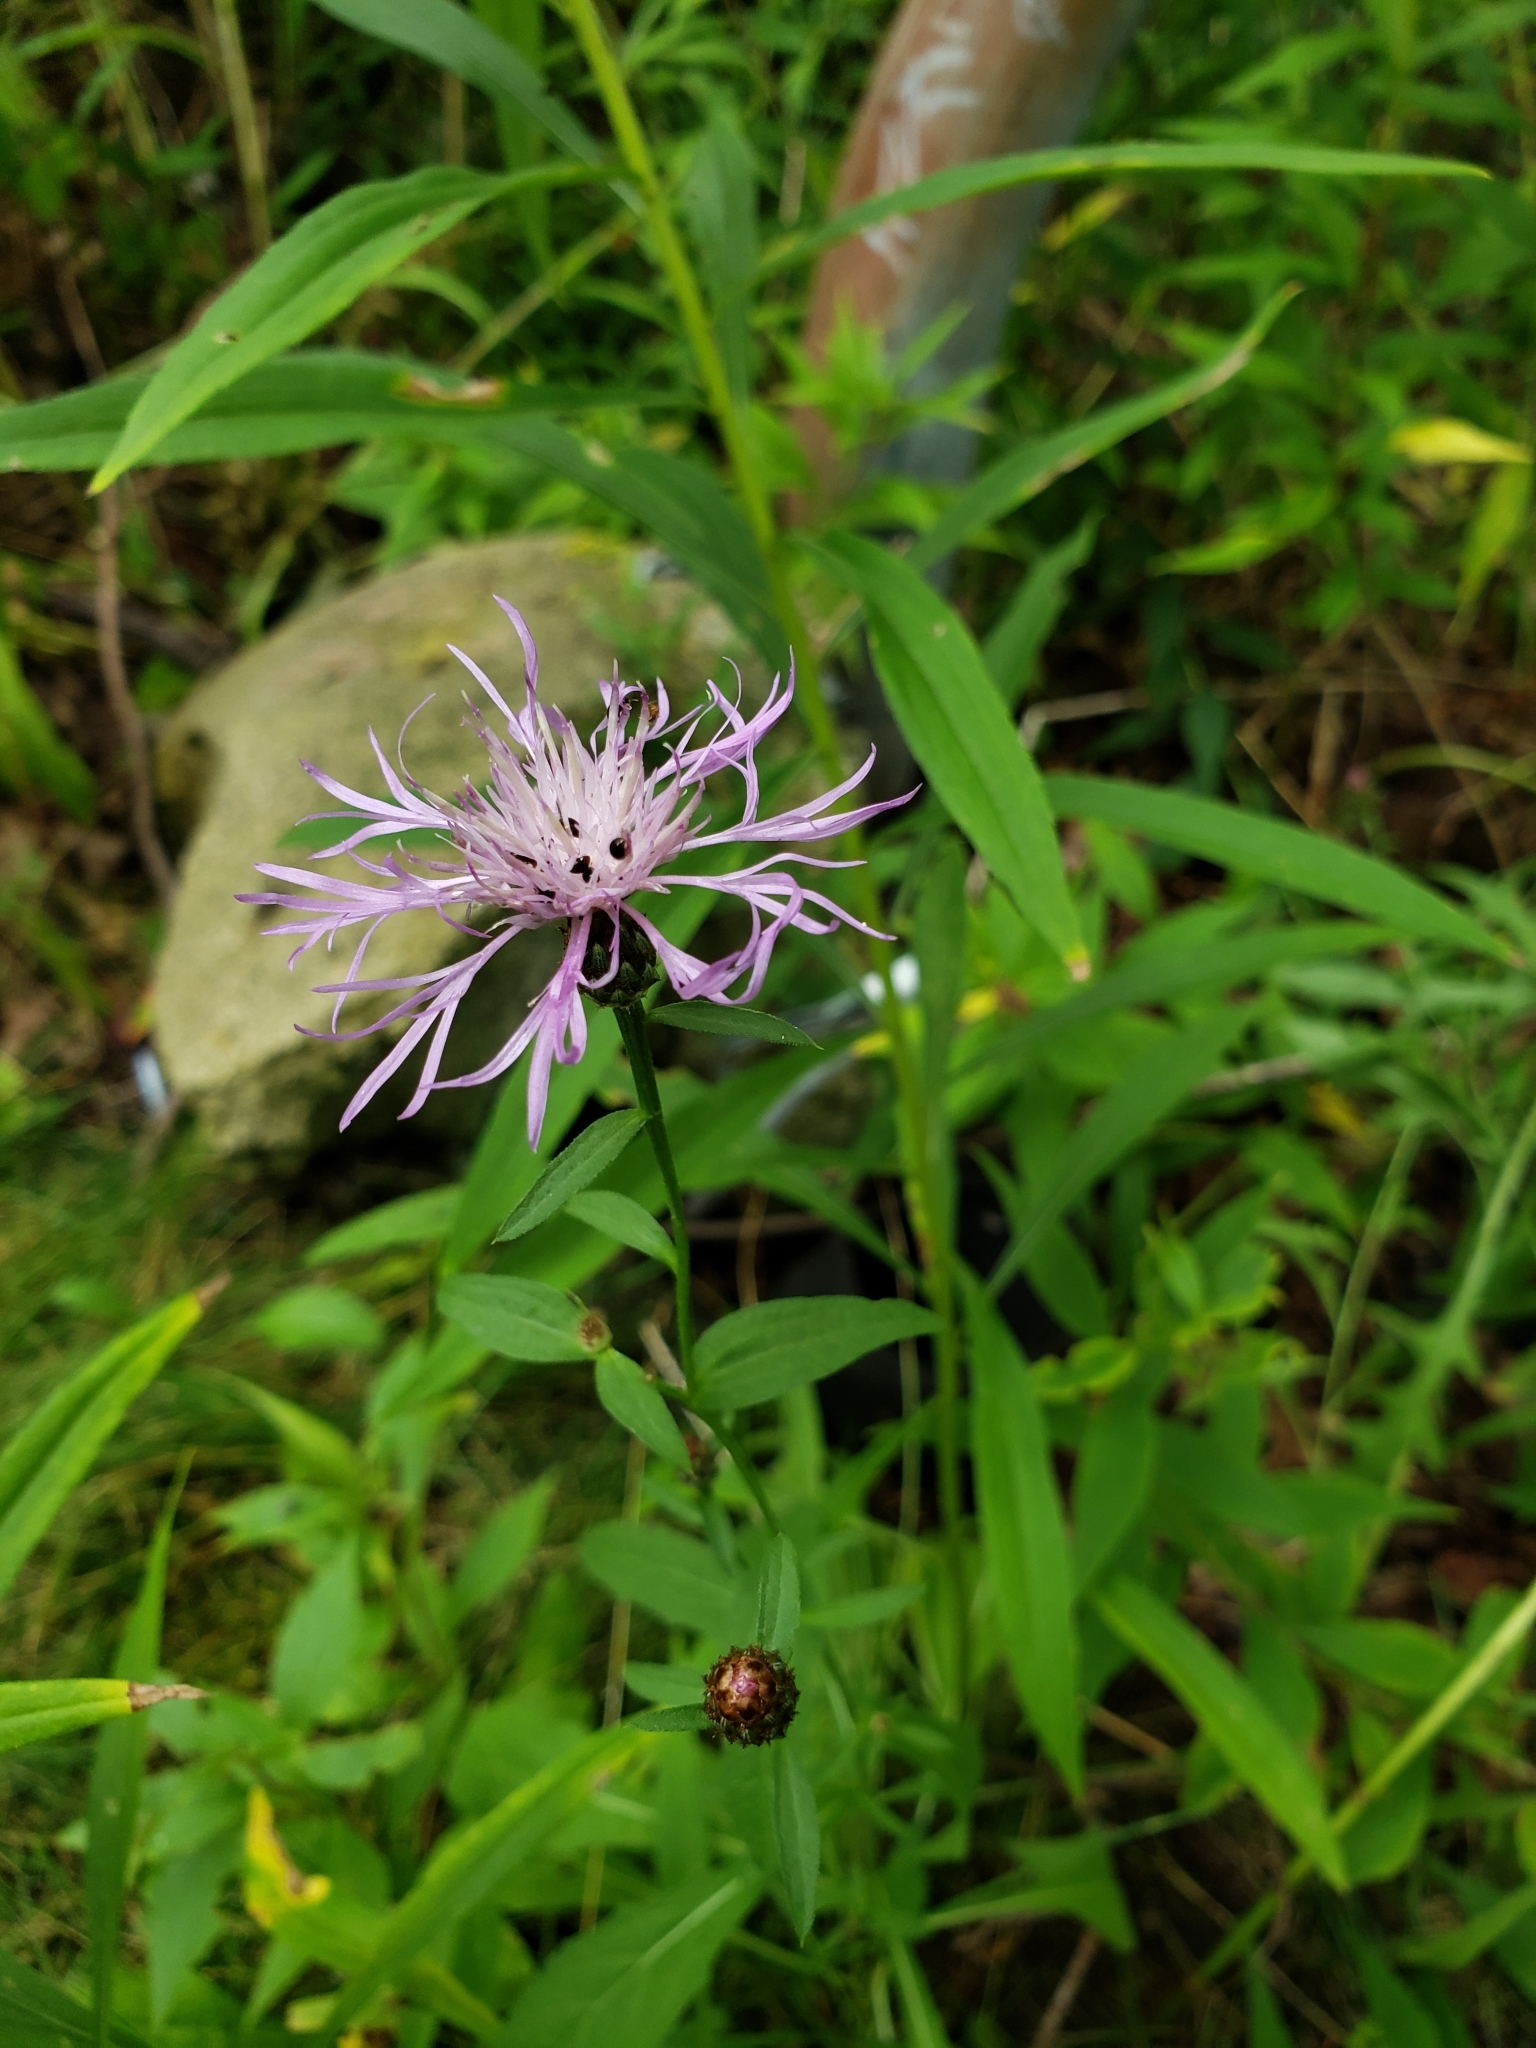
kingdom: Plantae
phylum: Tracheophyta
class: Magnoliopsida
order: Asterales
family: Asteraceae
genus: Centaurea
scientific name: Centaurea
